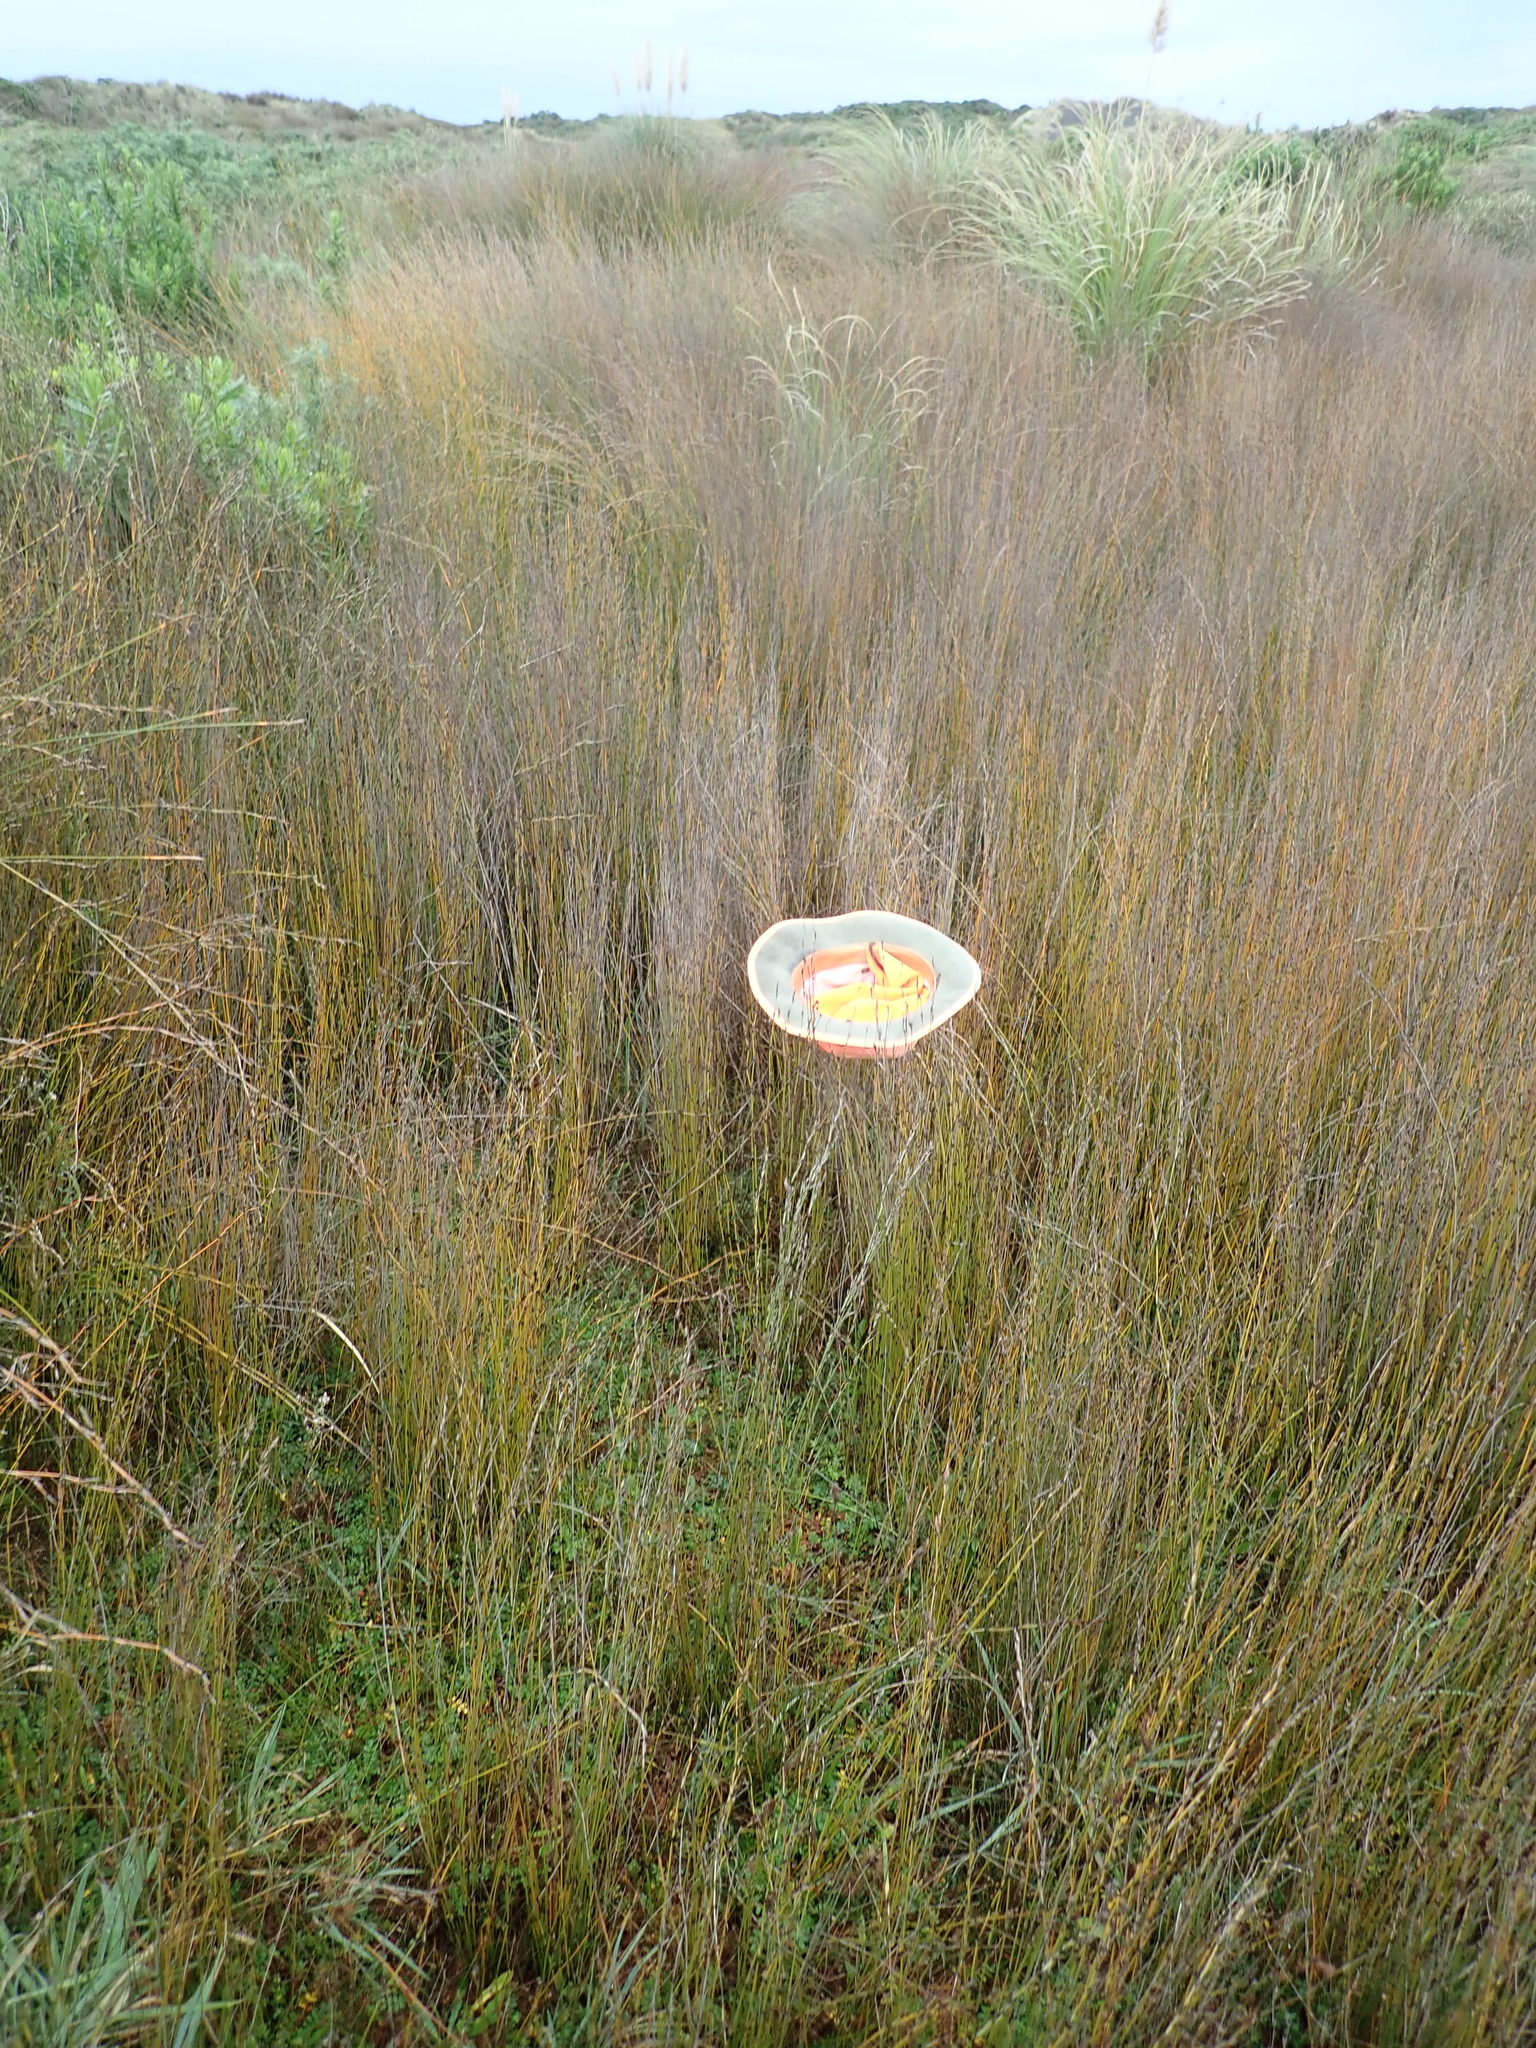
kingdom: Plantae
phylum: Tracheophyta
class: Magnoliopsida
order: Rosales
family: Rosaceae
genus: Acaena
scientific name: Acaena novae-zelandiae
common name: Pirri-pirri-bur
